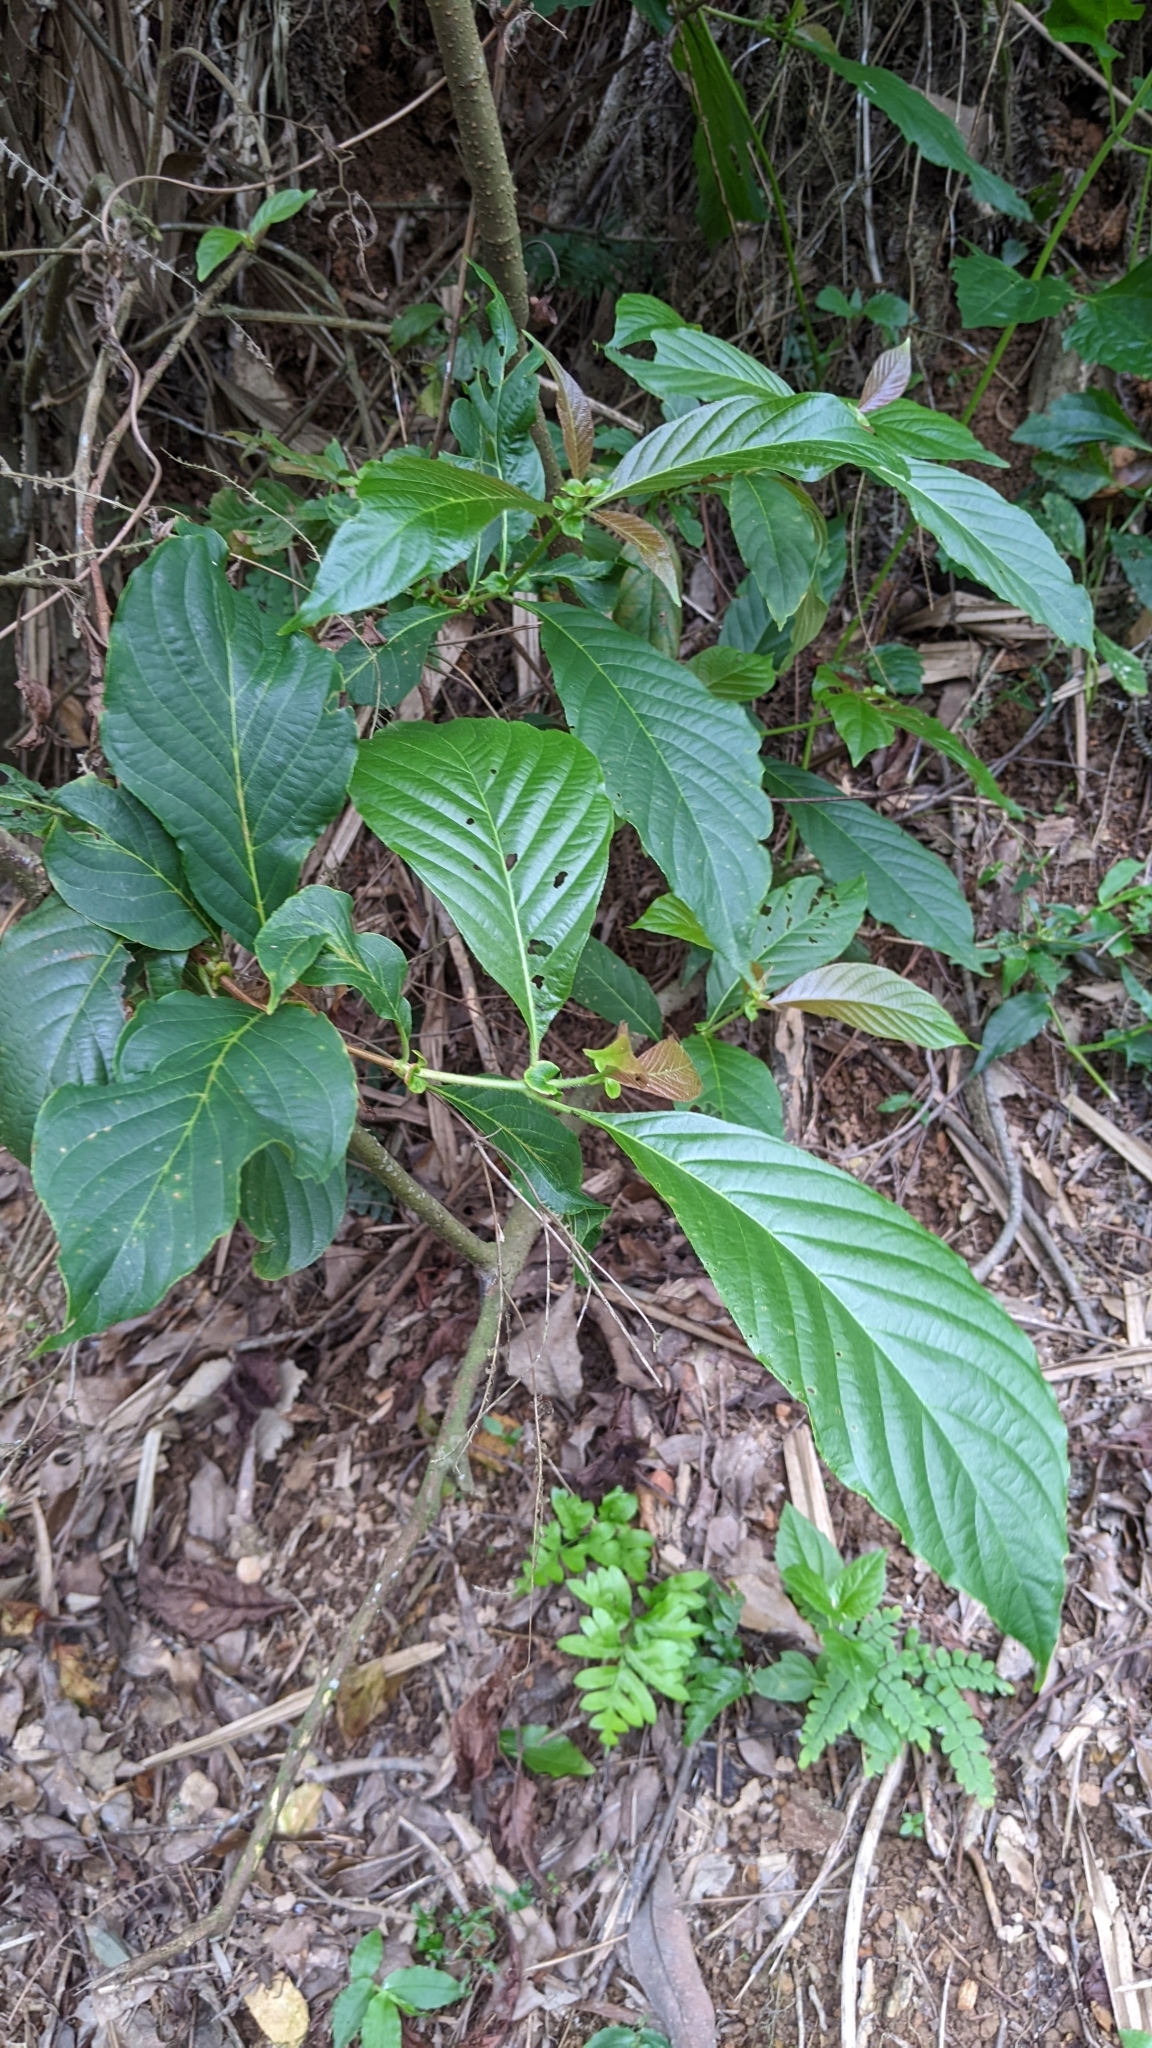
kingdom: Plantae
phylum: Tracheophyta
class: Magnoliopsida
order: Gentianales
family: Rubiaceae
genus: Wendlandia
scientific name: Wendlandia uvariifolia
